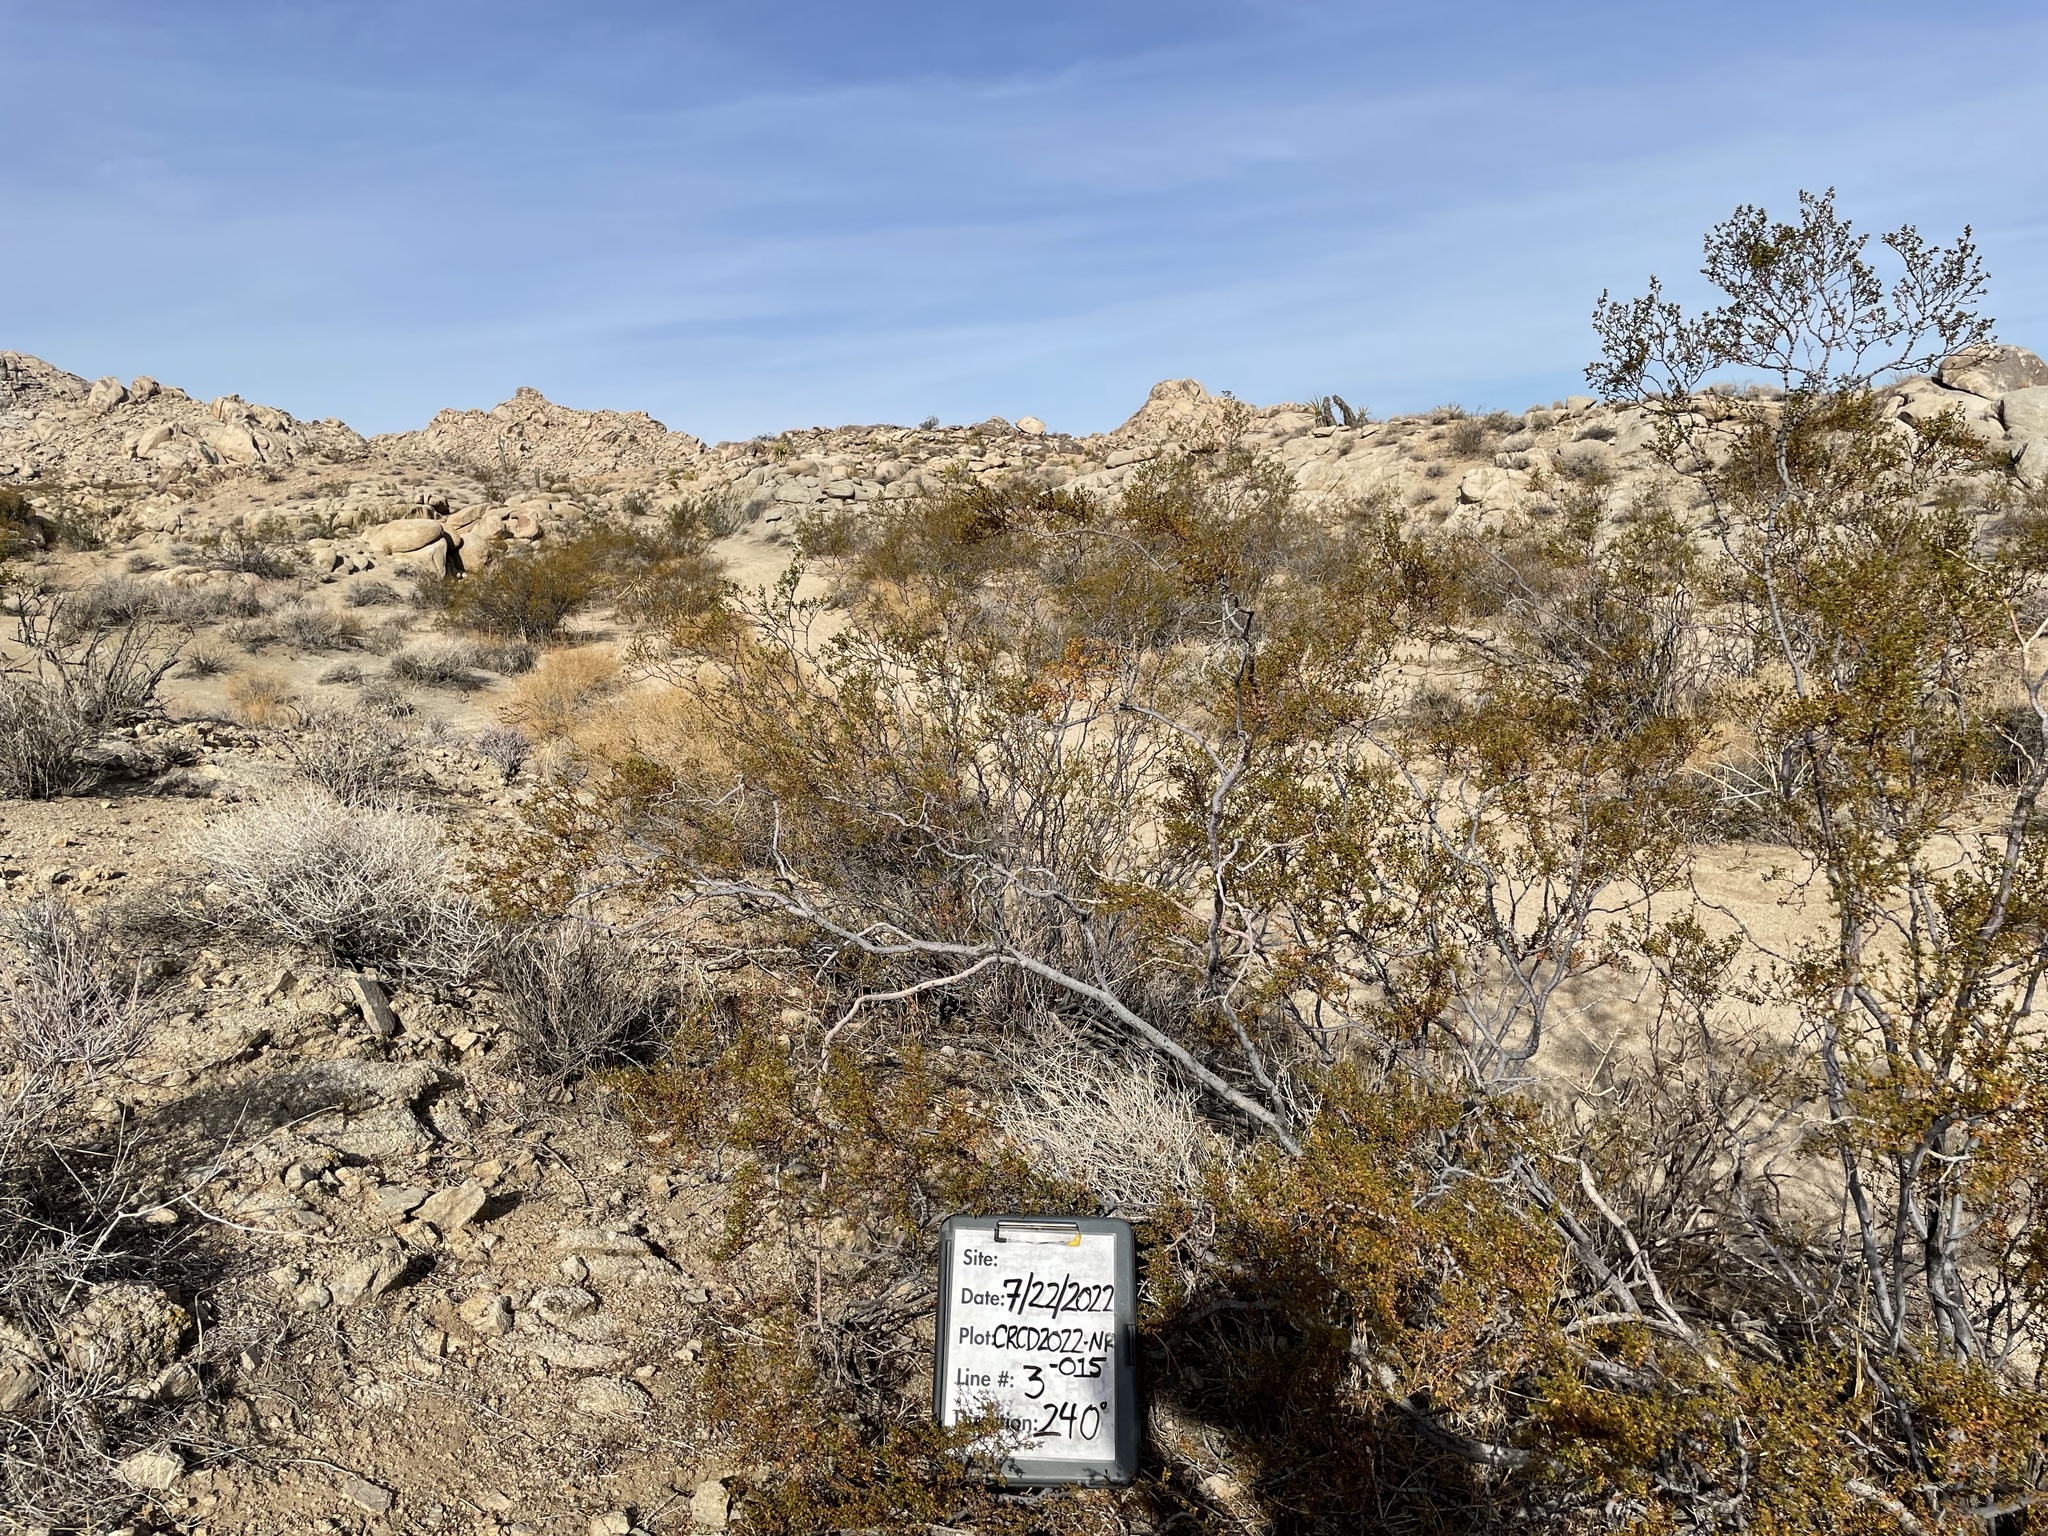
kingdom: Plantae
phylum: Tracheophyta
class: Magnoliopsida
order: Zygophyllales
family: Zygophyllaceae
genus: Larrea
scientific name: Larrea tridentata
